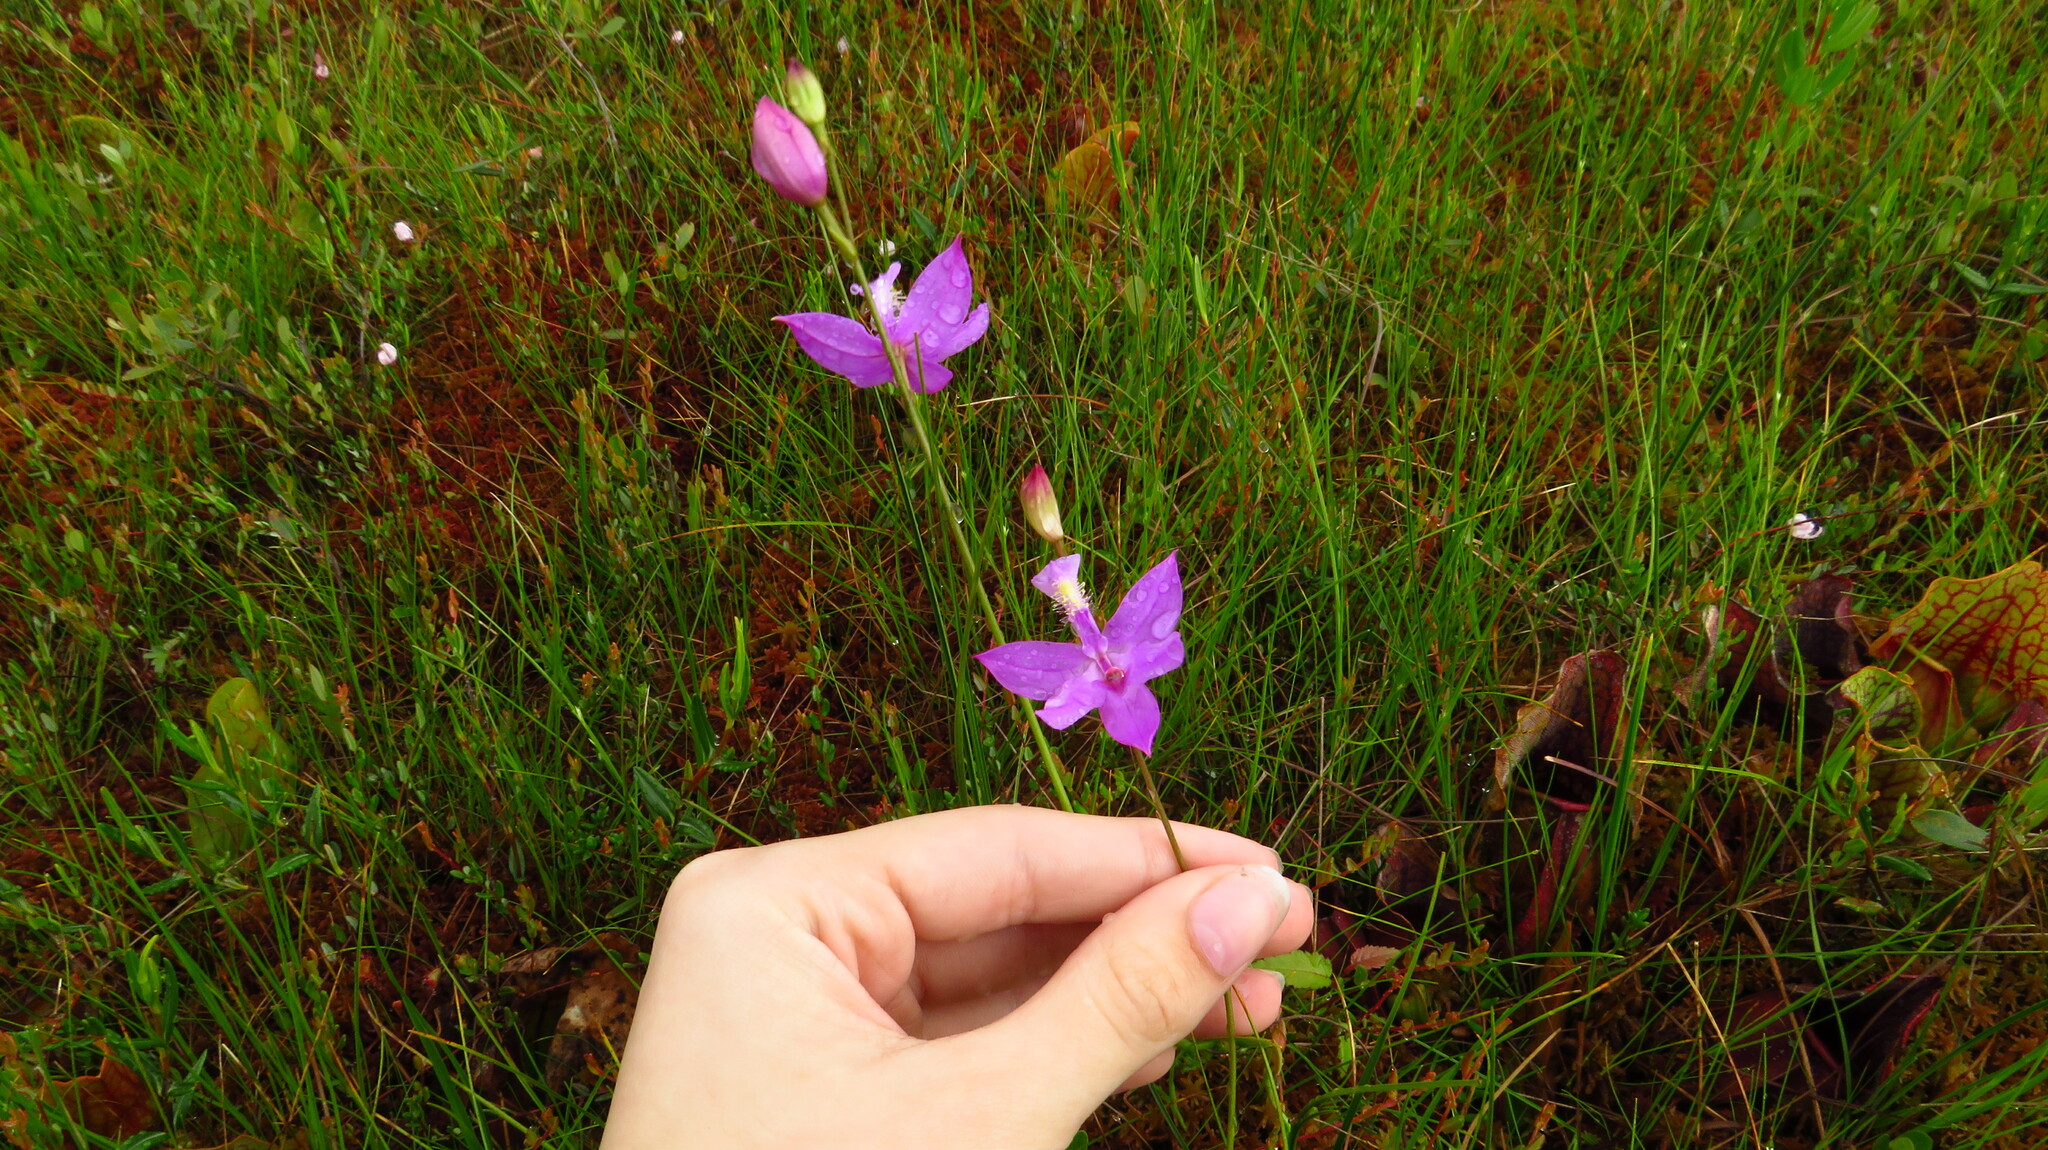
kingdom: Plantae
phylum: Tracheophyta
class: Liliopsida
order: Asparagales
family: Orchidaceae
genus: Calopogon
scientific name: Calopogon tuberosus
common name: Grass-pink
